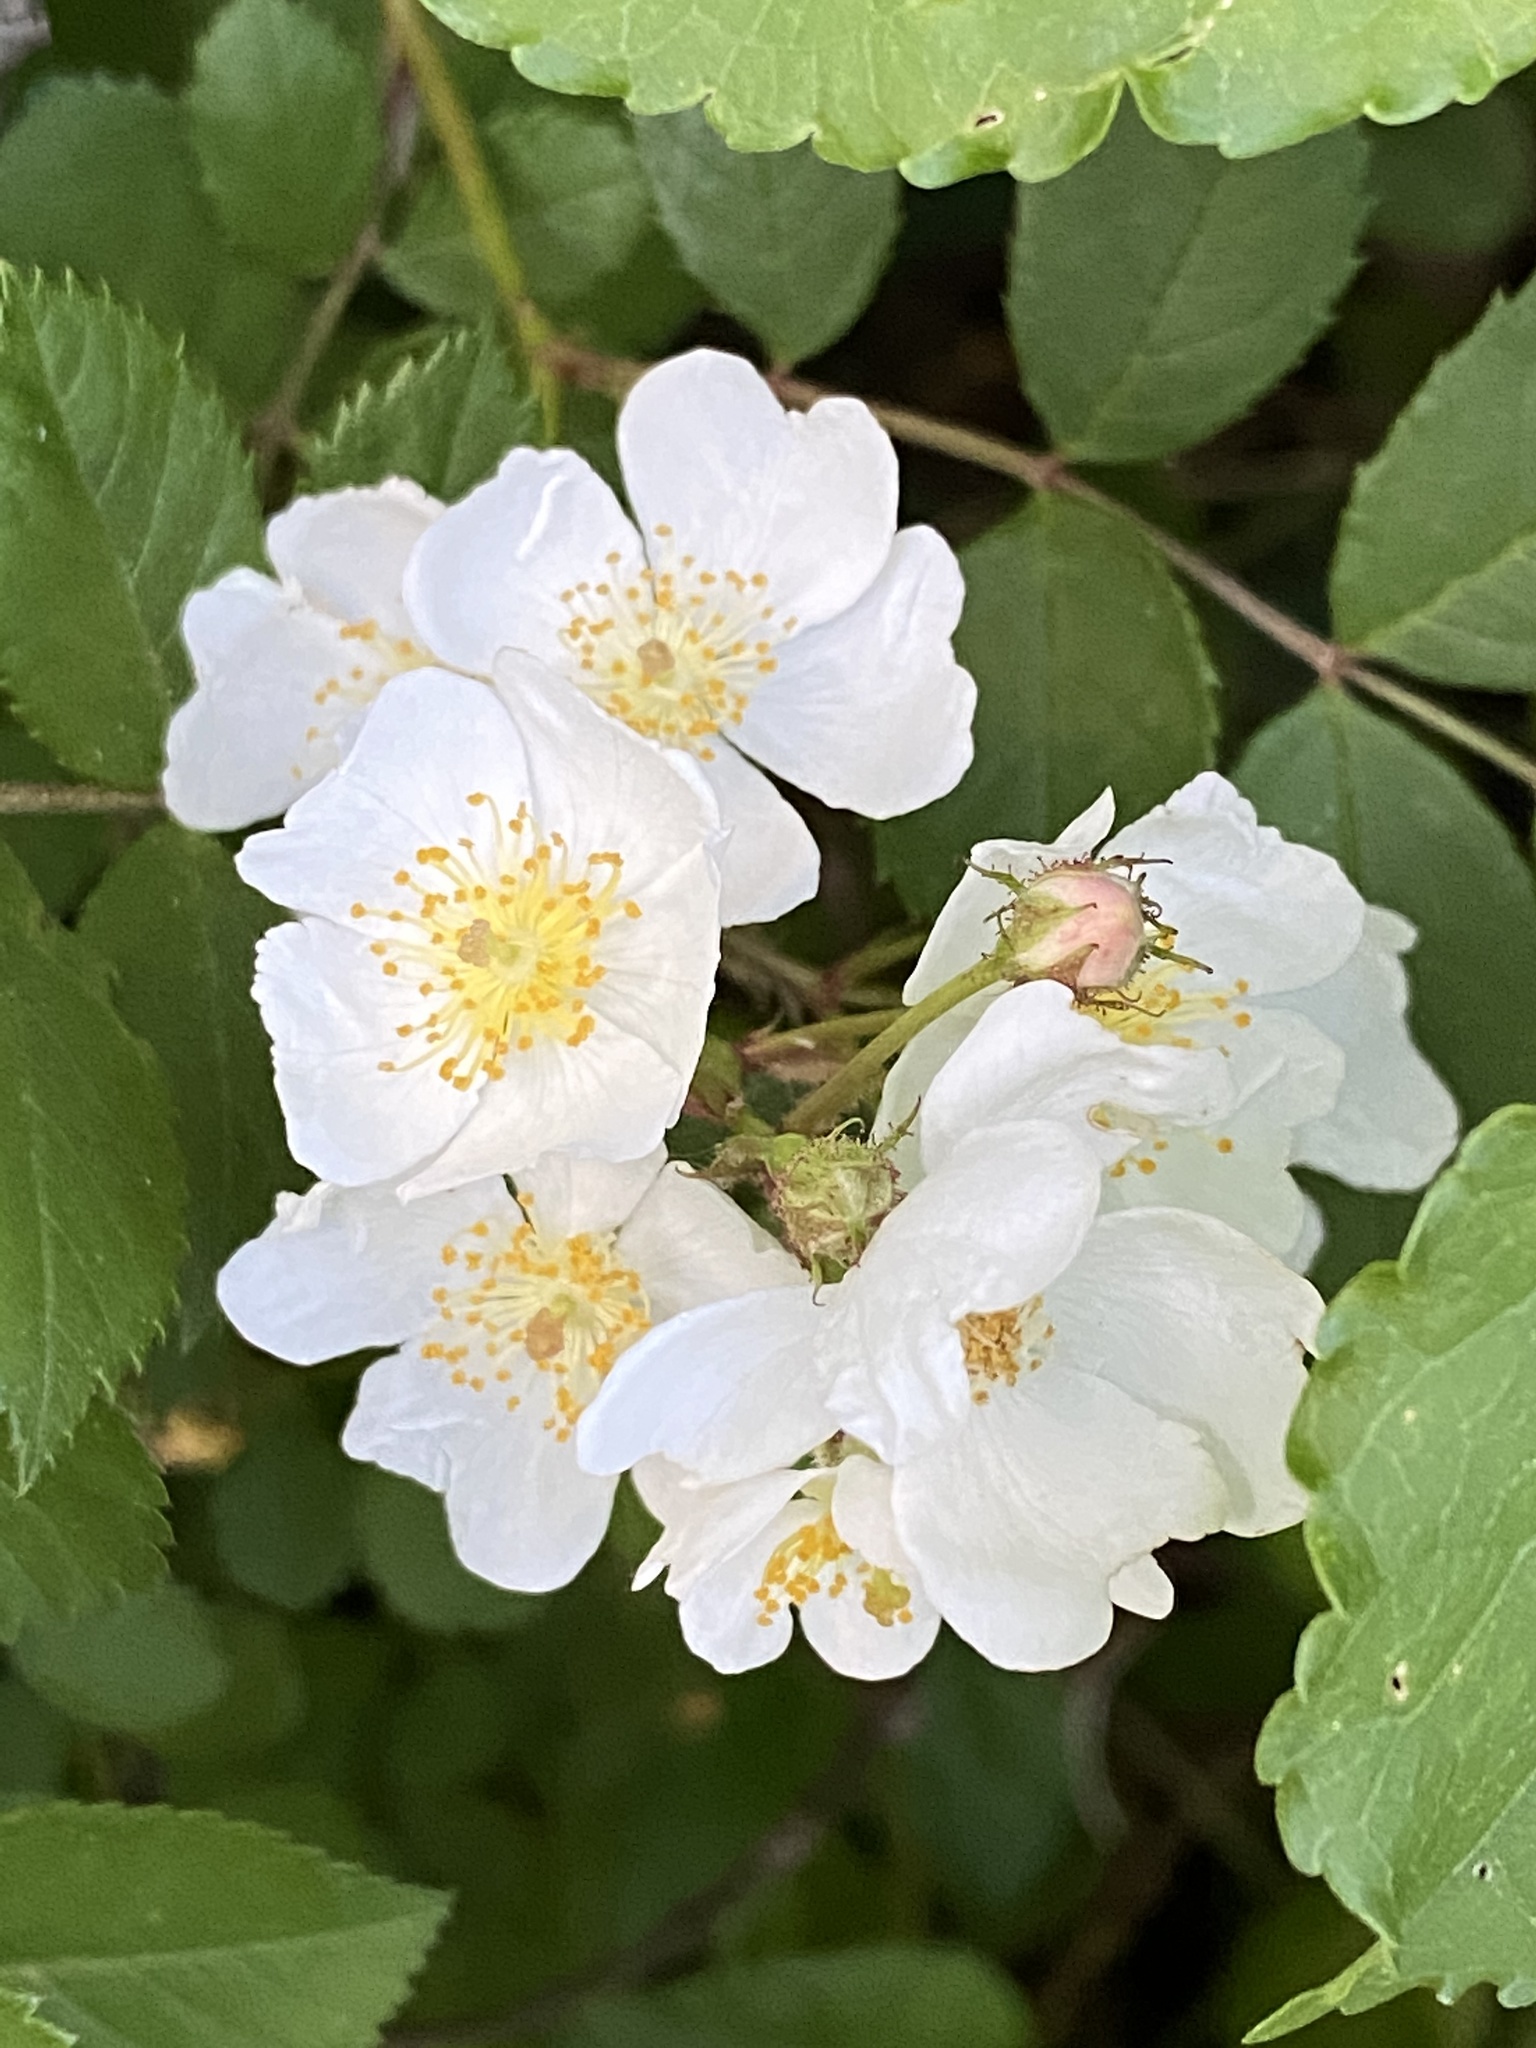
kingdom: Plantae
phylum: Tracheophyta
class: Magnoliopsida
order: Rosales
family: Rosaceae
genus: Rosa
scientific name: Rosa multiflora
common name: Multiflora rose
